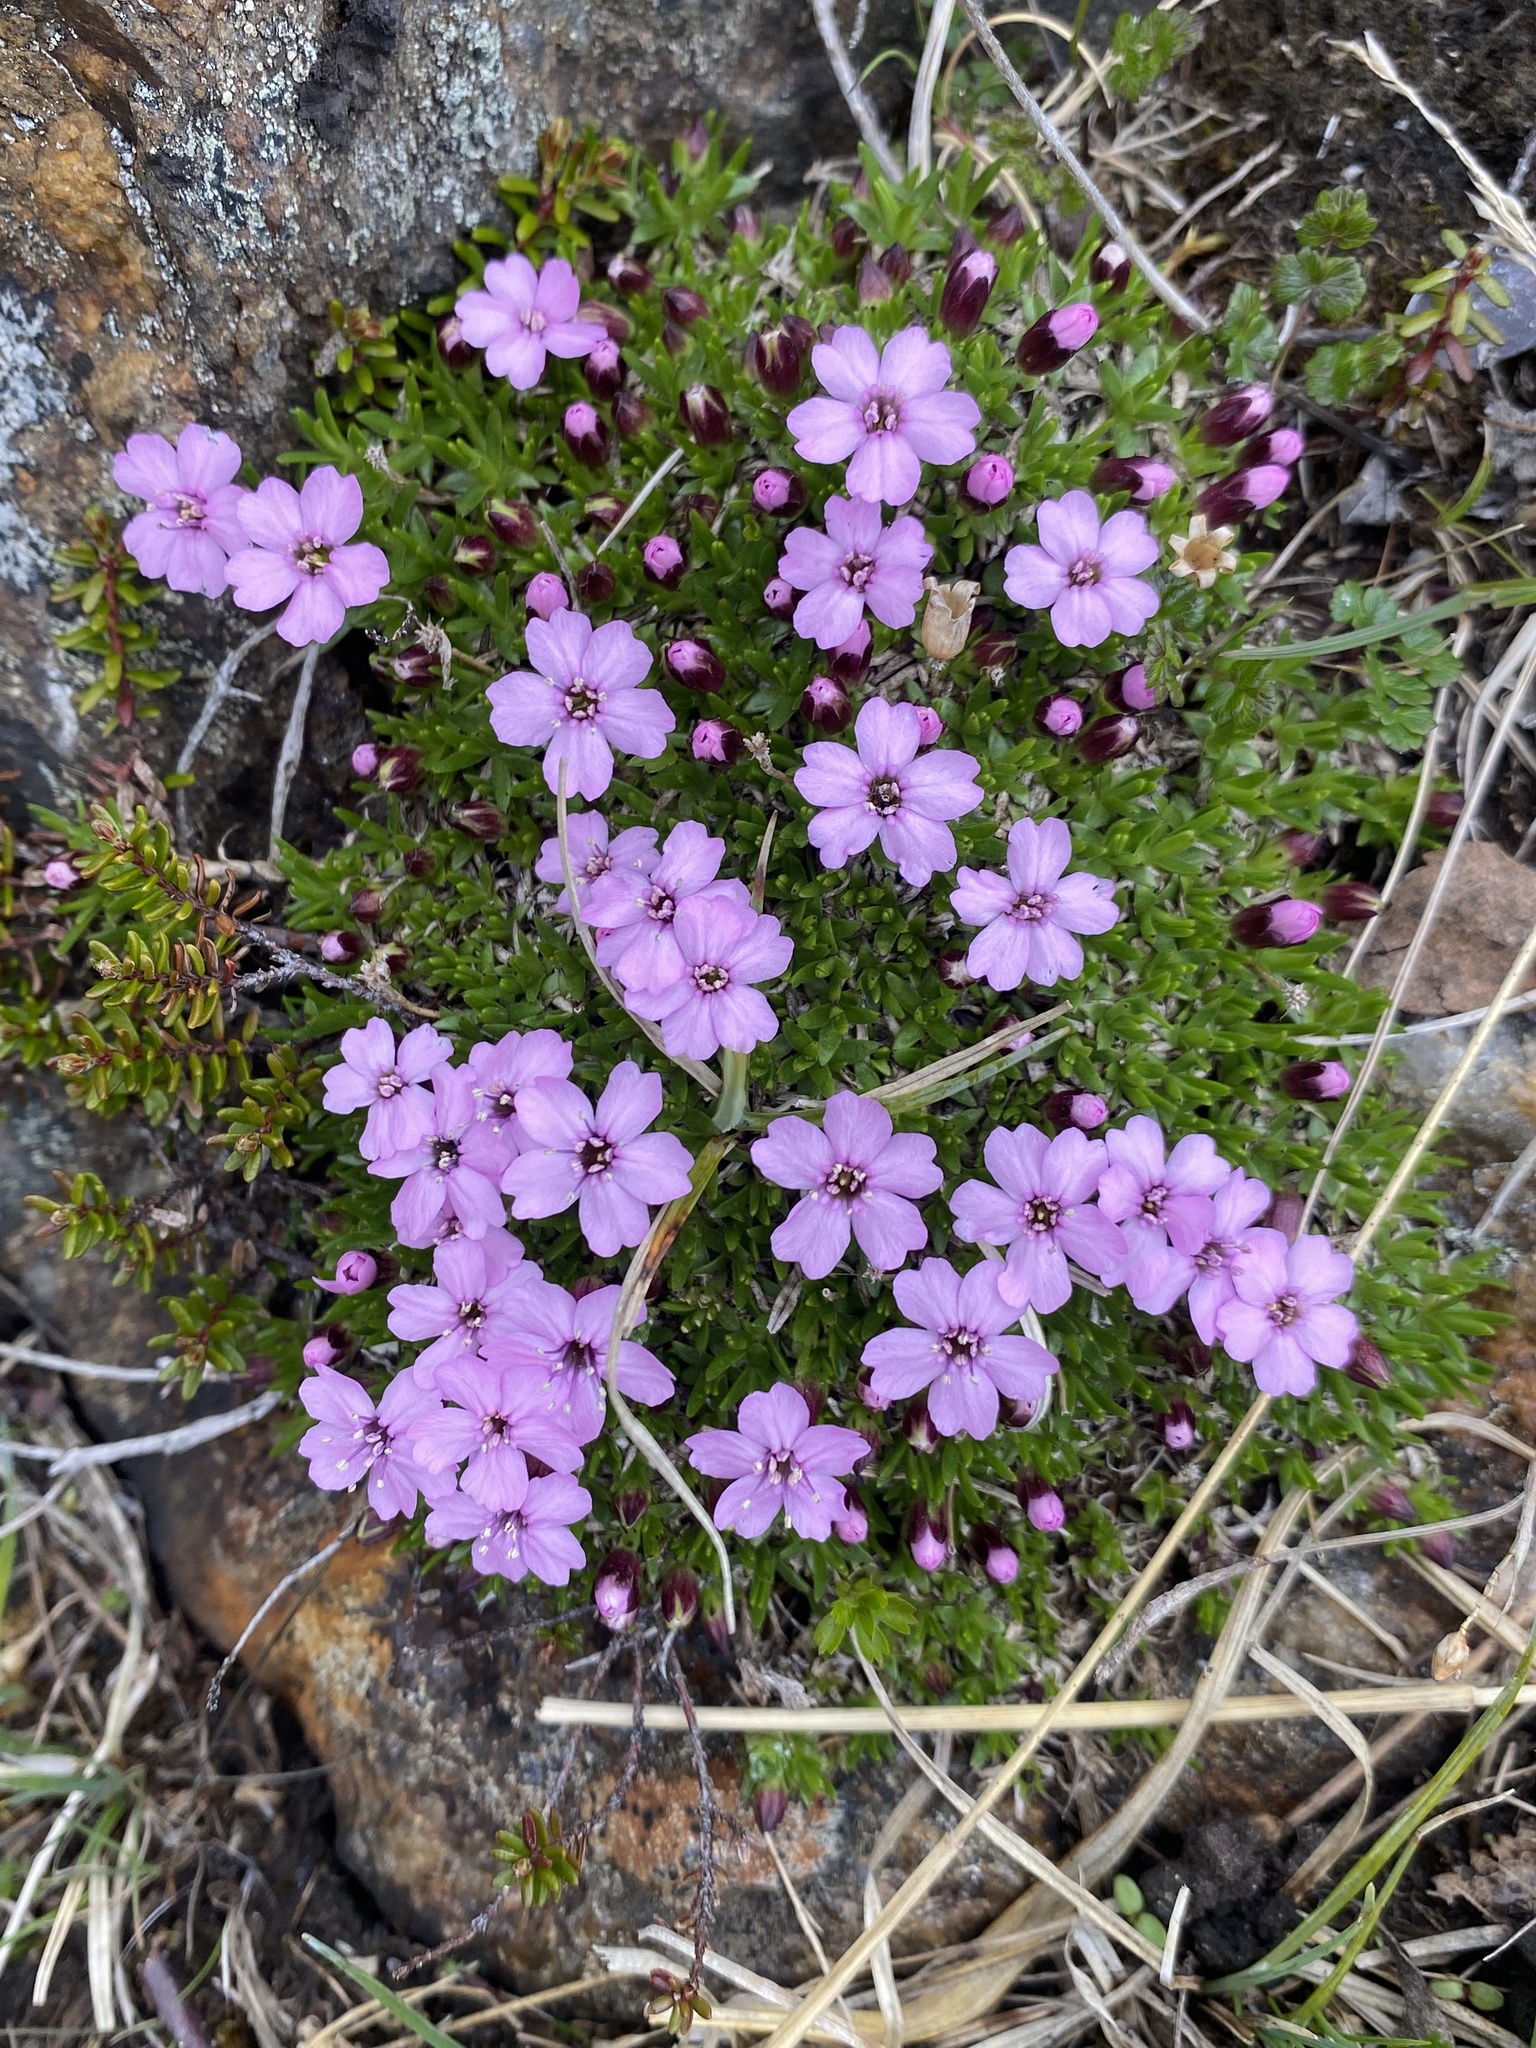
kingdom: Plantae
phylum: Tracheophyta
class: Magnoliopsida
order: Caryophyllales
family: Caryophyllaceae
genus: Silene
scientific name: Silene acaulis
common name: Moss campion
